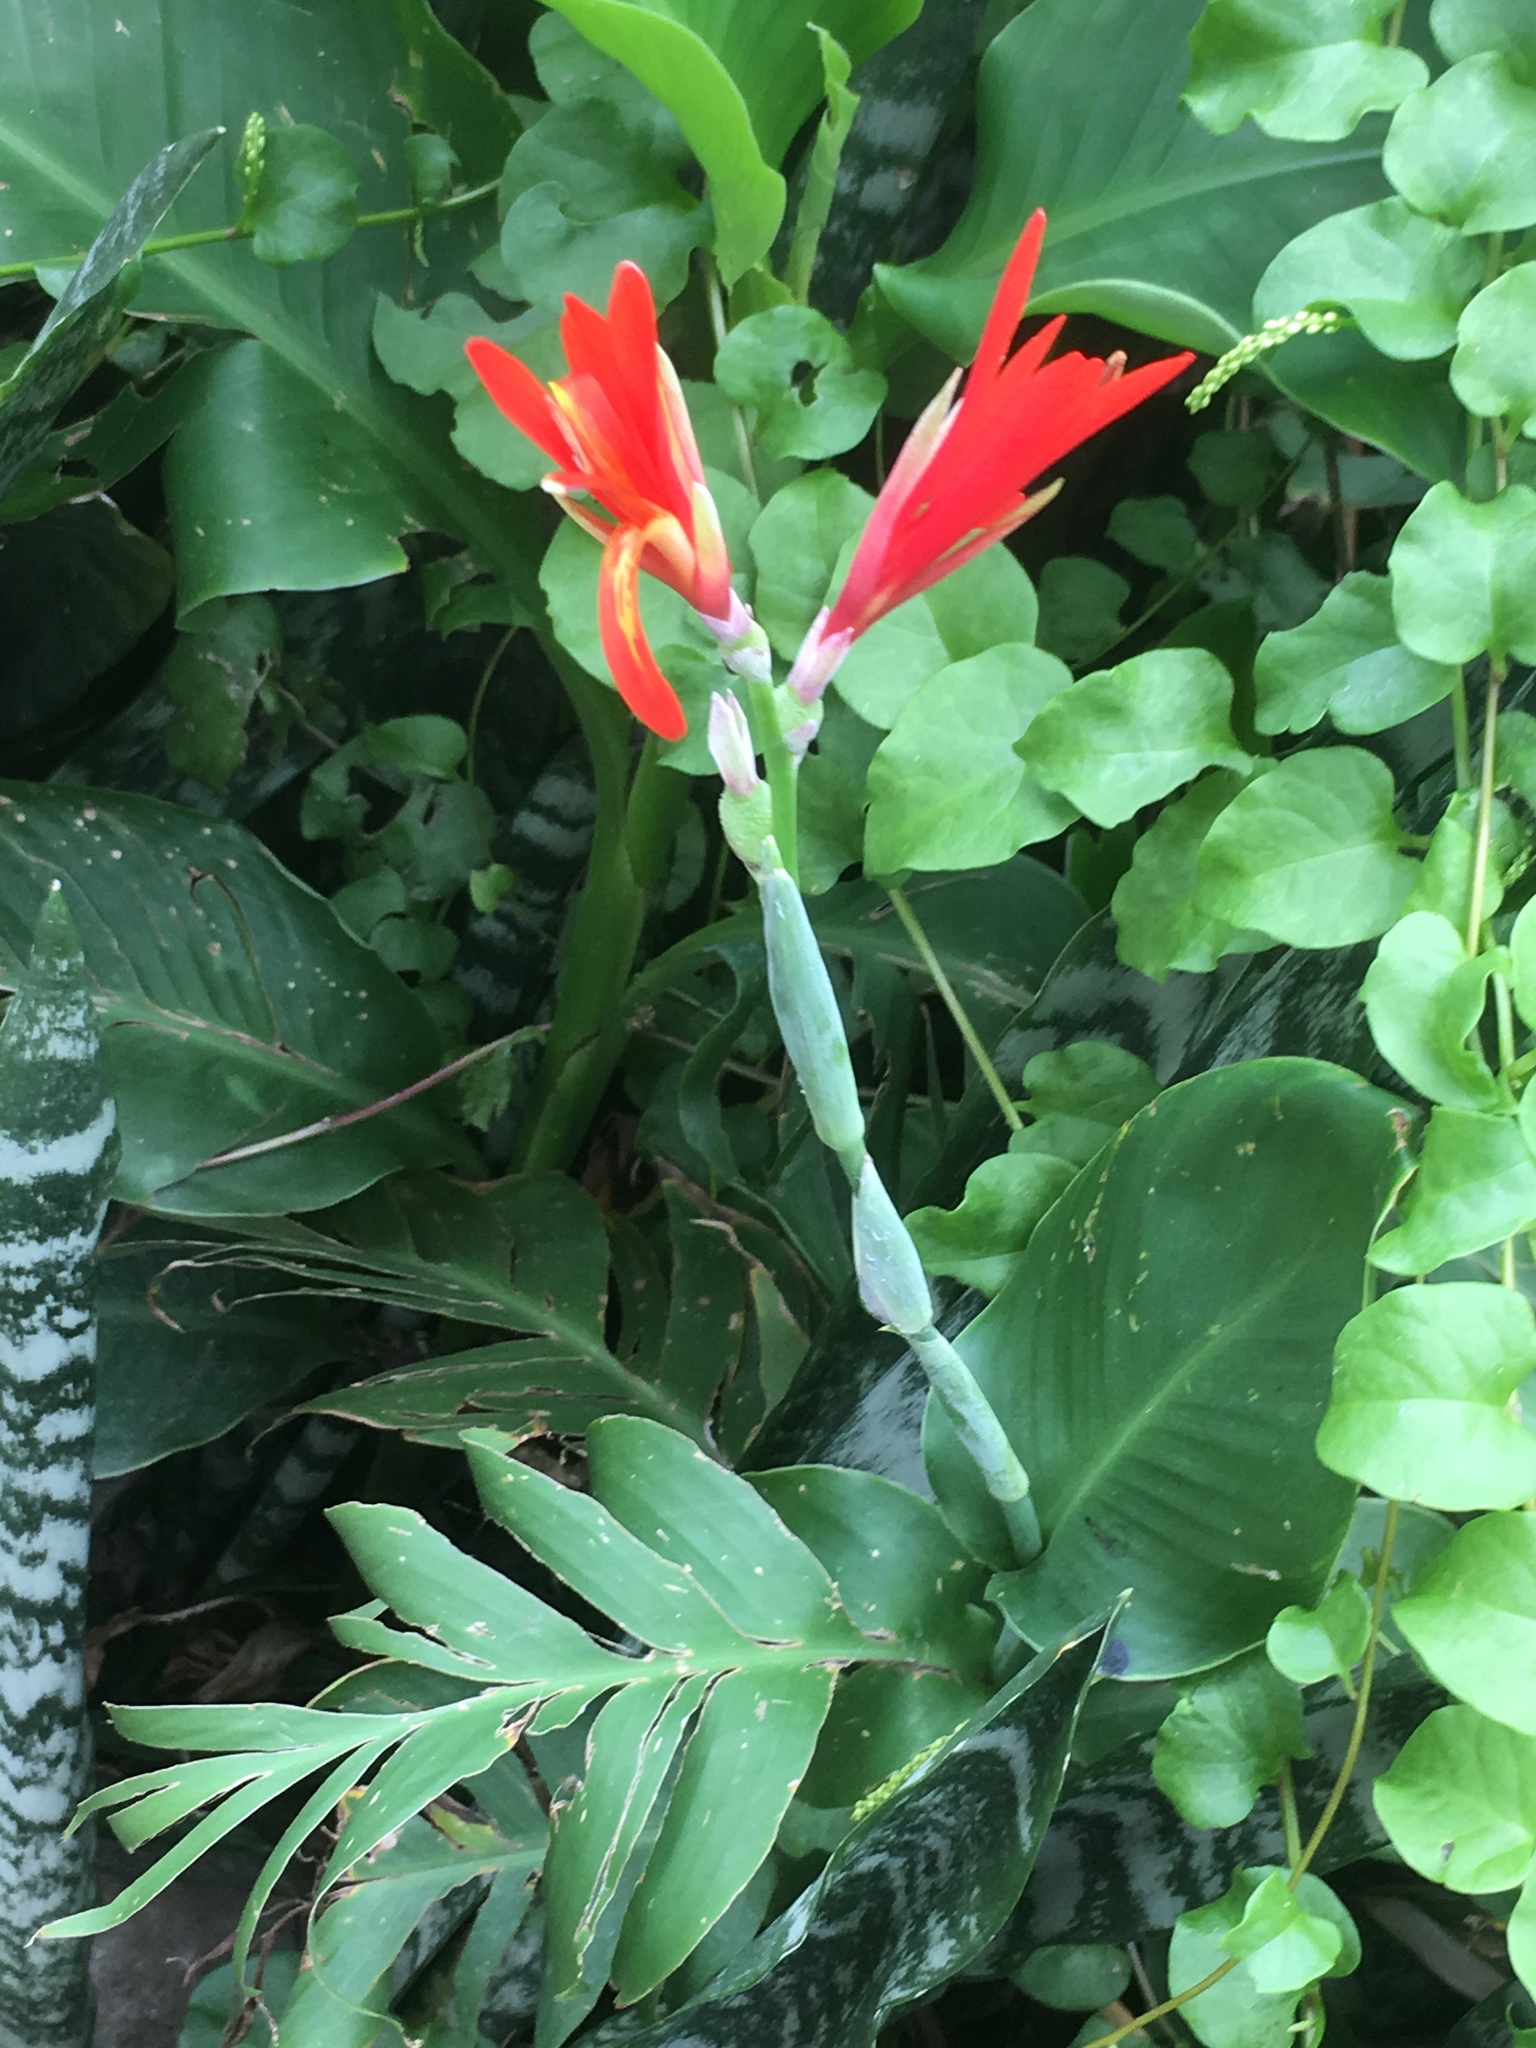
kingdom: Plantae
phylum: Tracheophyta
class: Liliopsida
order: Zingiberales
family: Cannaceae
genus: Canna
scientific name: Canna indica
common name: Indian shot
